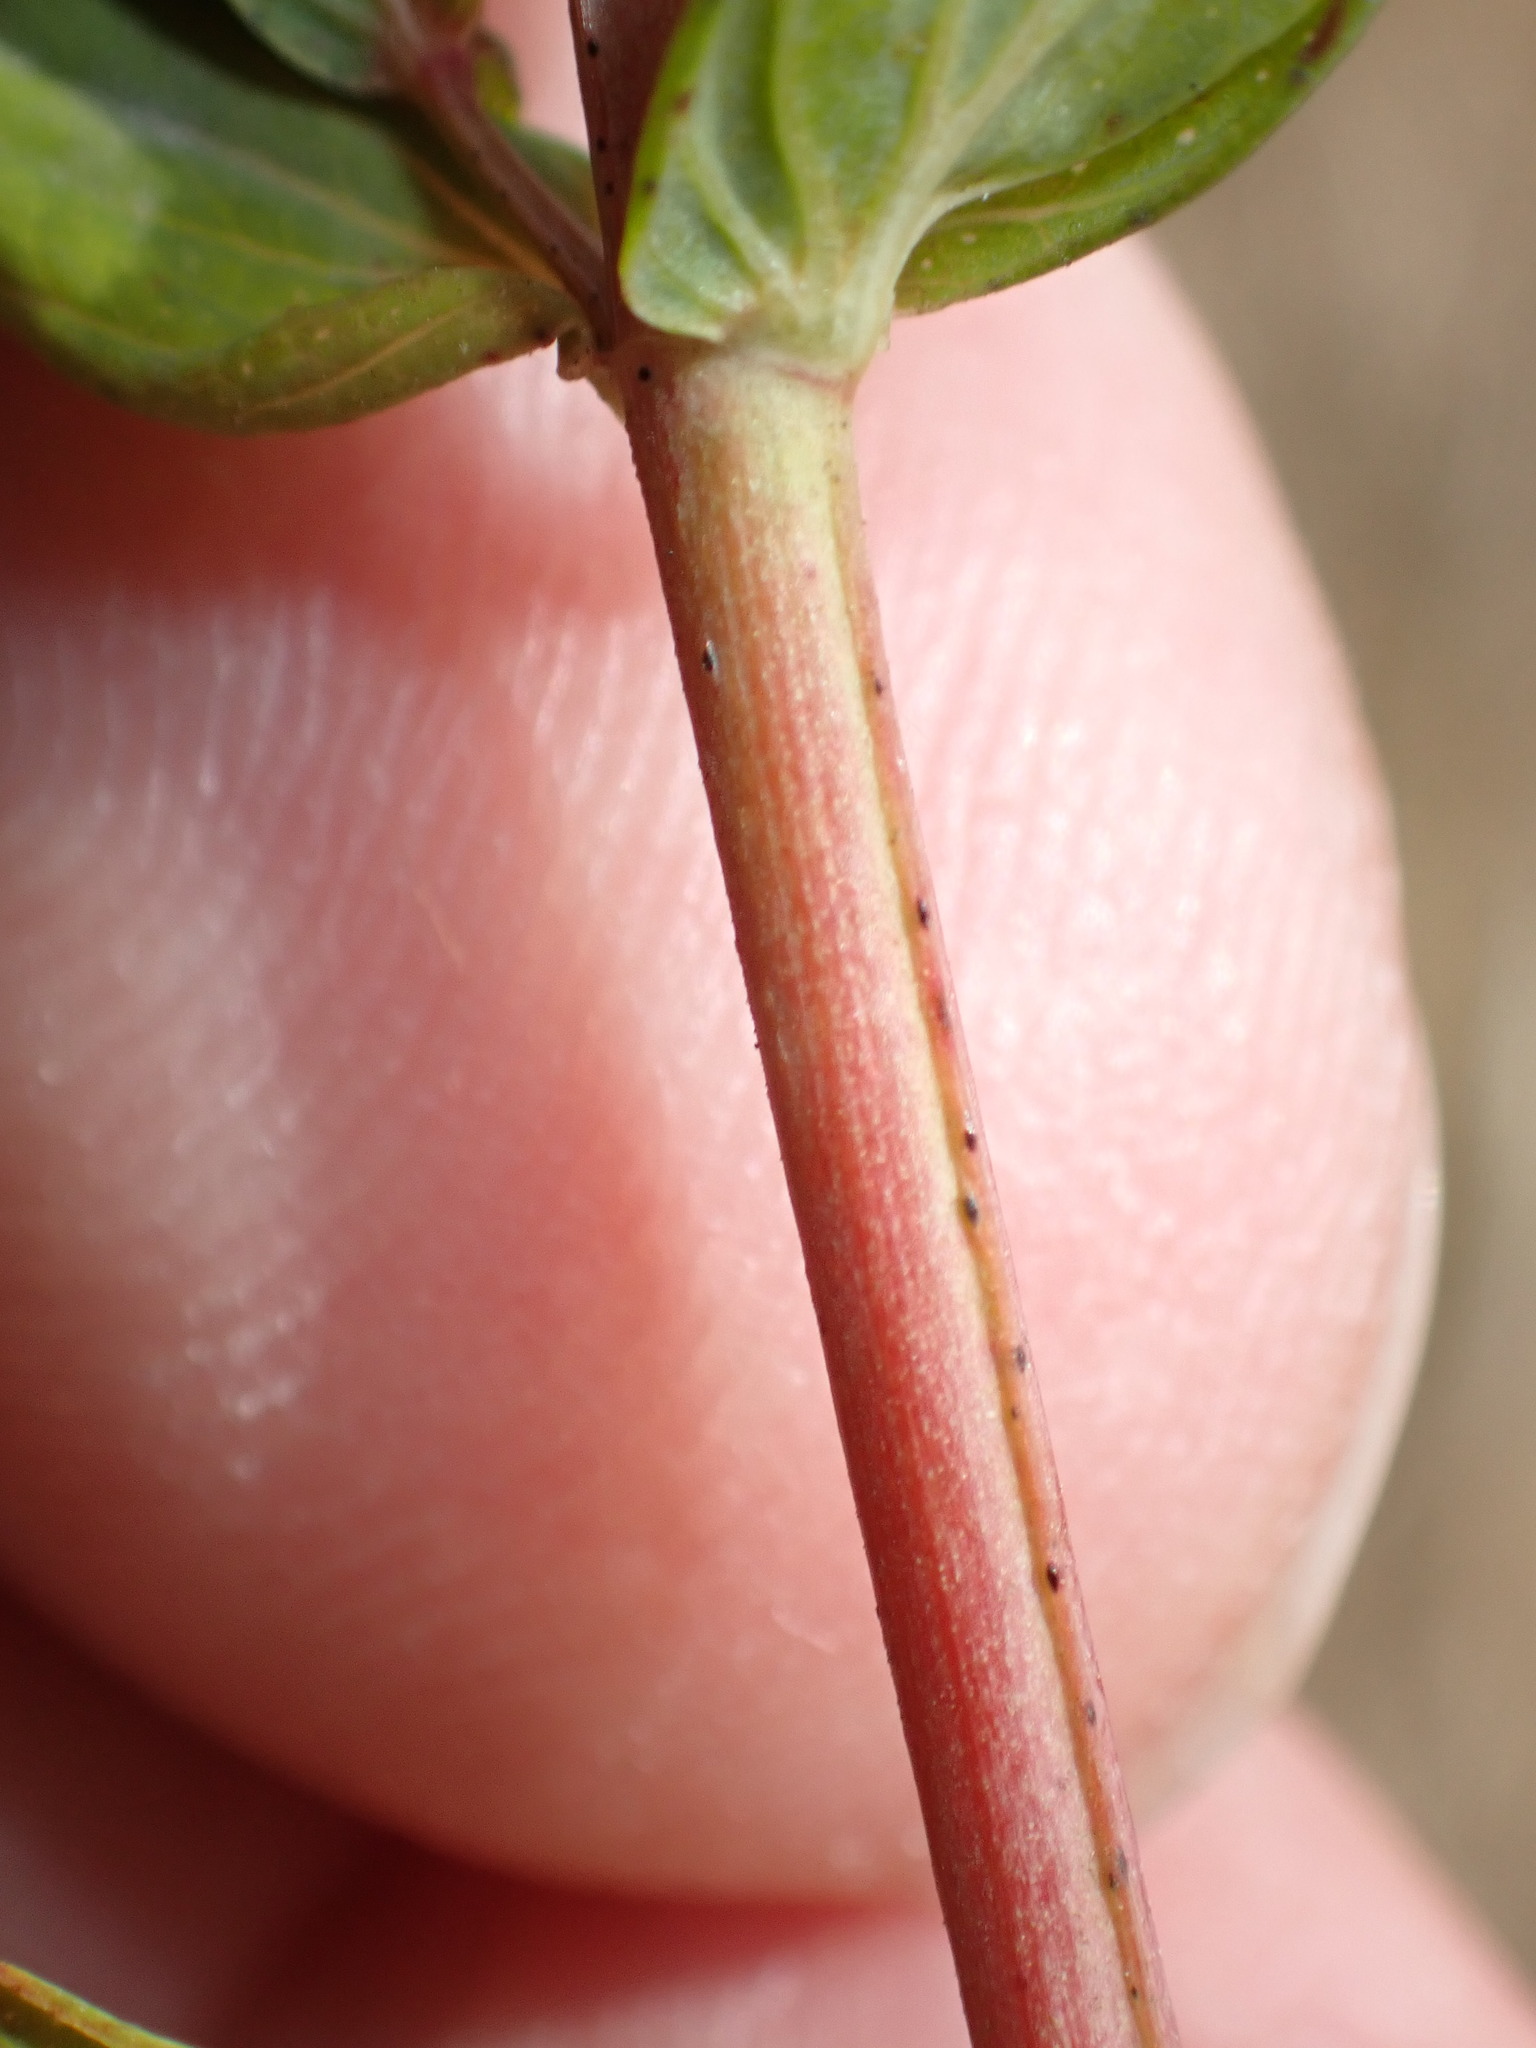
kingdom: Plantae
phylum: Tracheophyta
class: Magnoliopsida
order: Malpighiales
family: Hypericaceae
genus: Hypericum
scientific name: Hypericum perforatum
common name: Common st. johnswort
